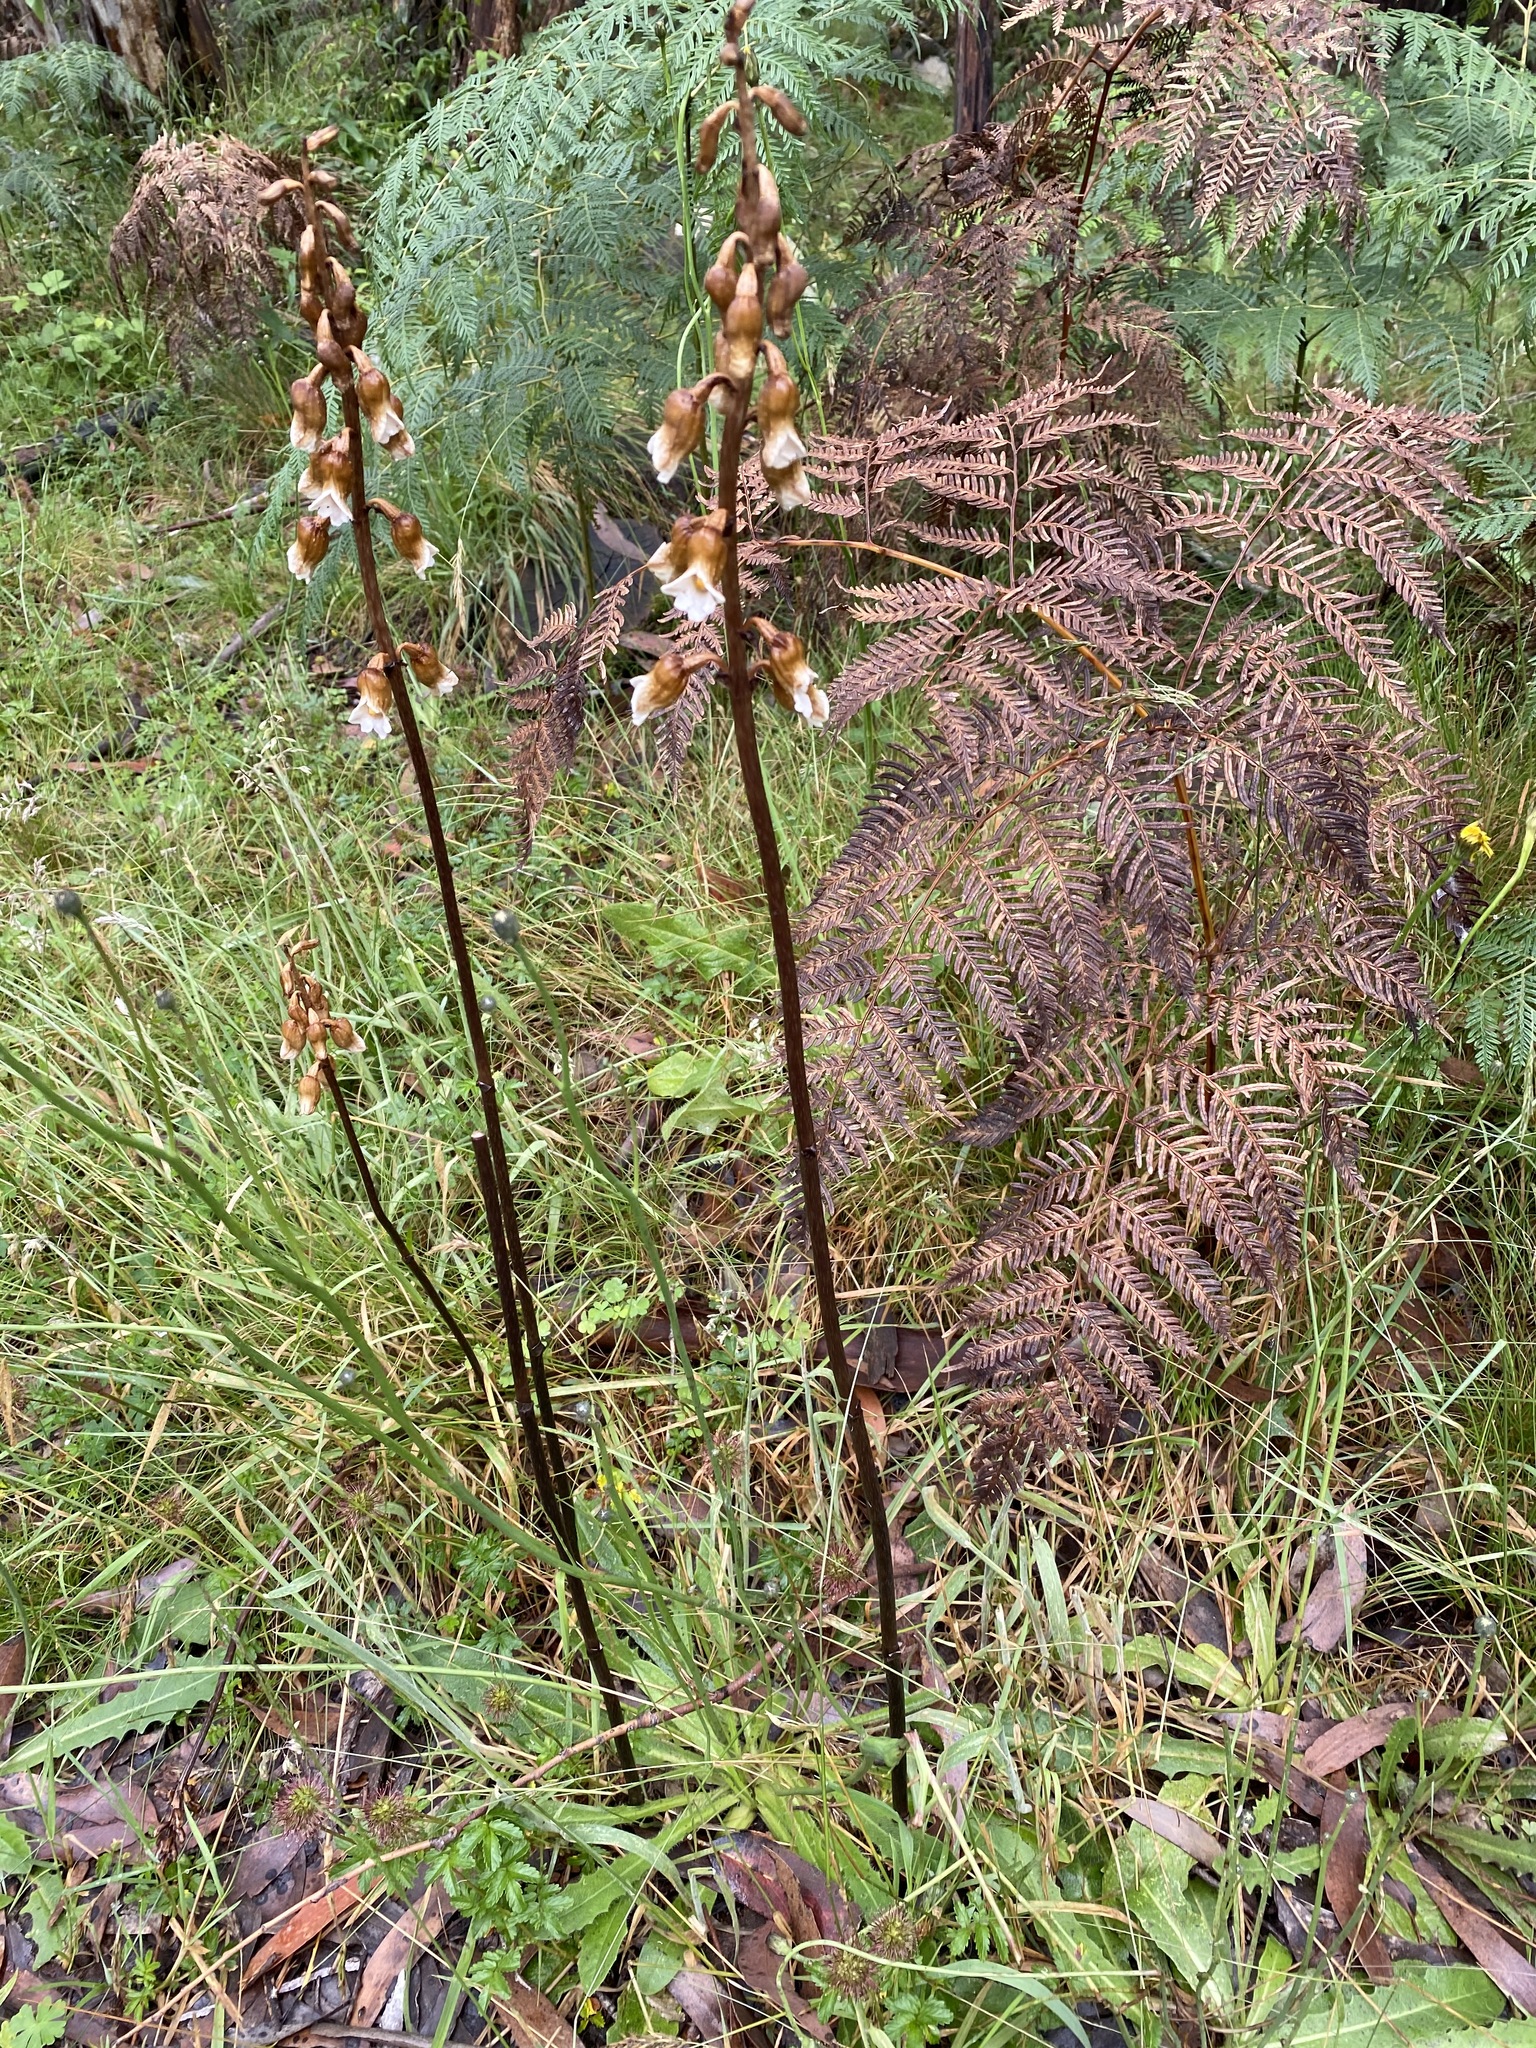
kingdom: Plantae
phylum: Tracheophyta
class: Liliopsida
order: Asparagales
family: Orchidaceae
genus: Gastrodia
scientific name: Gastrodia procera
